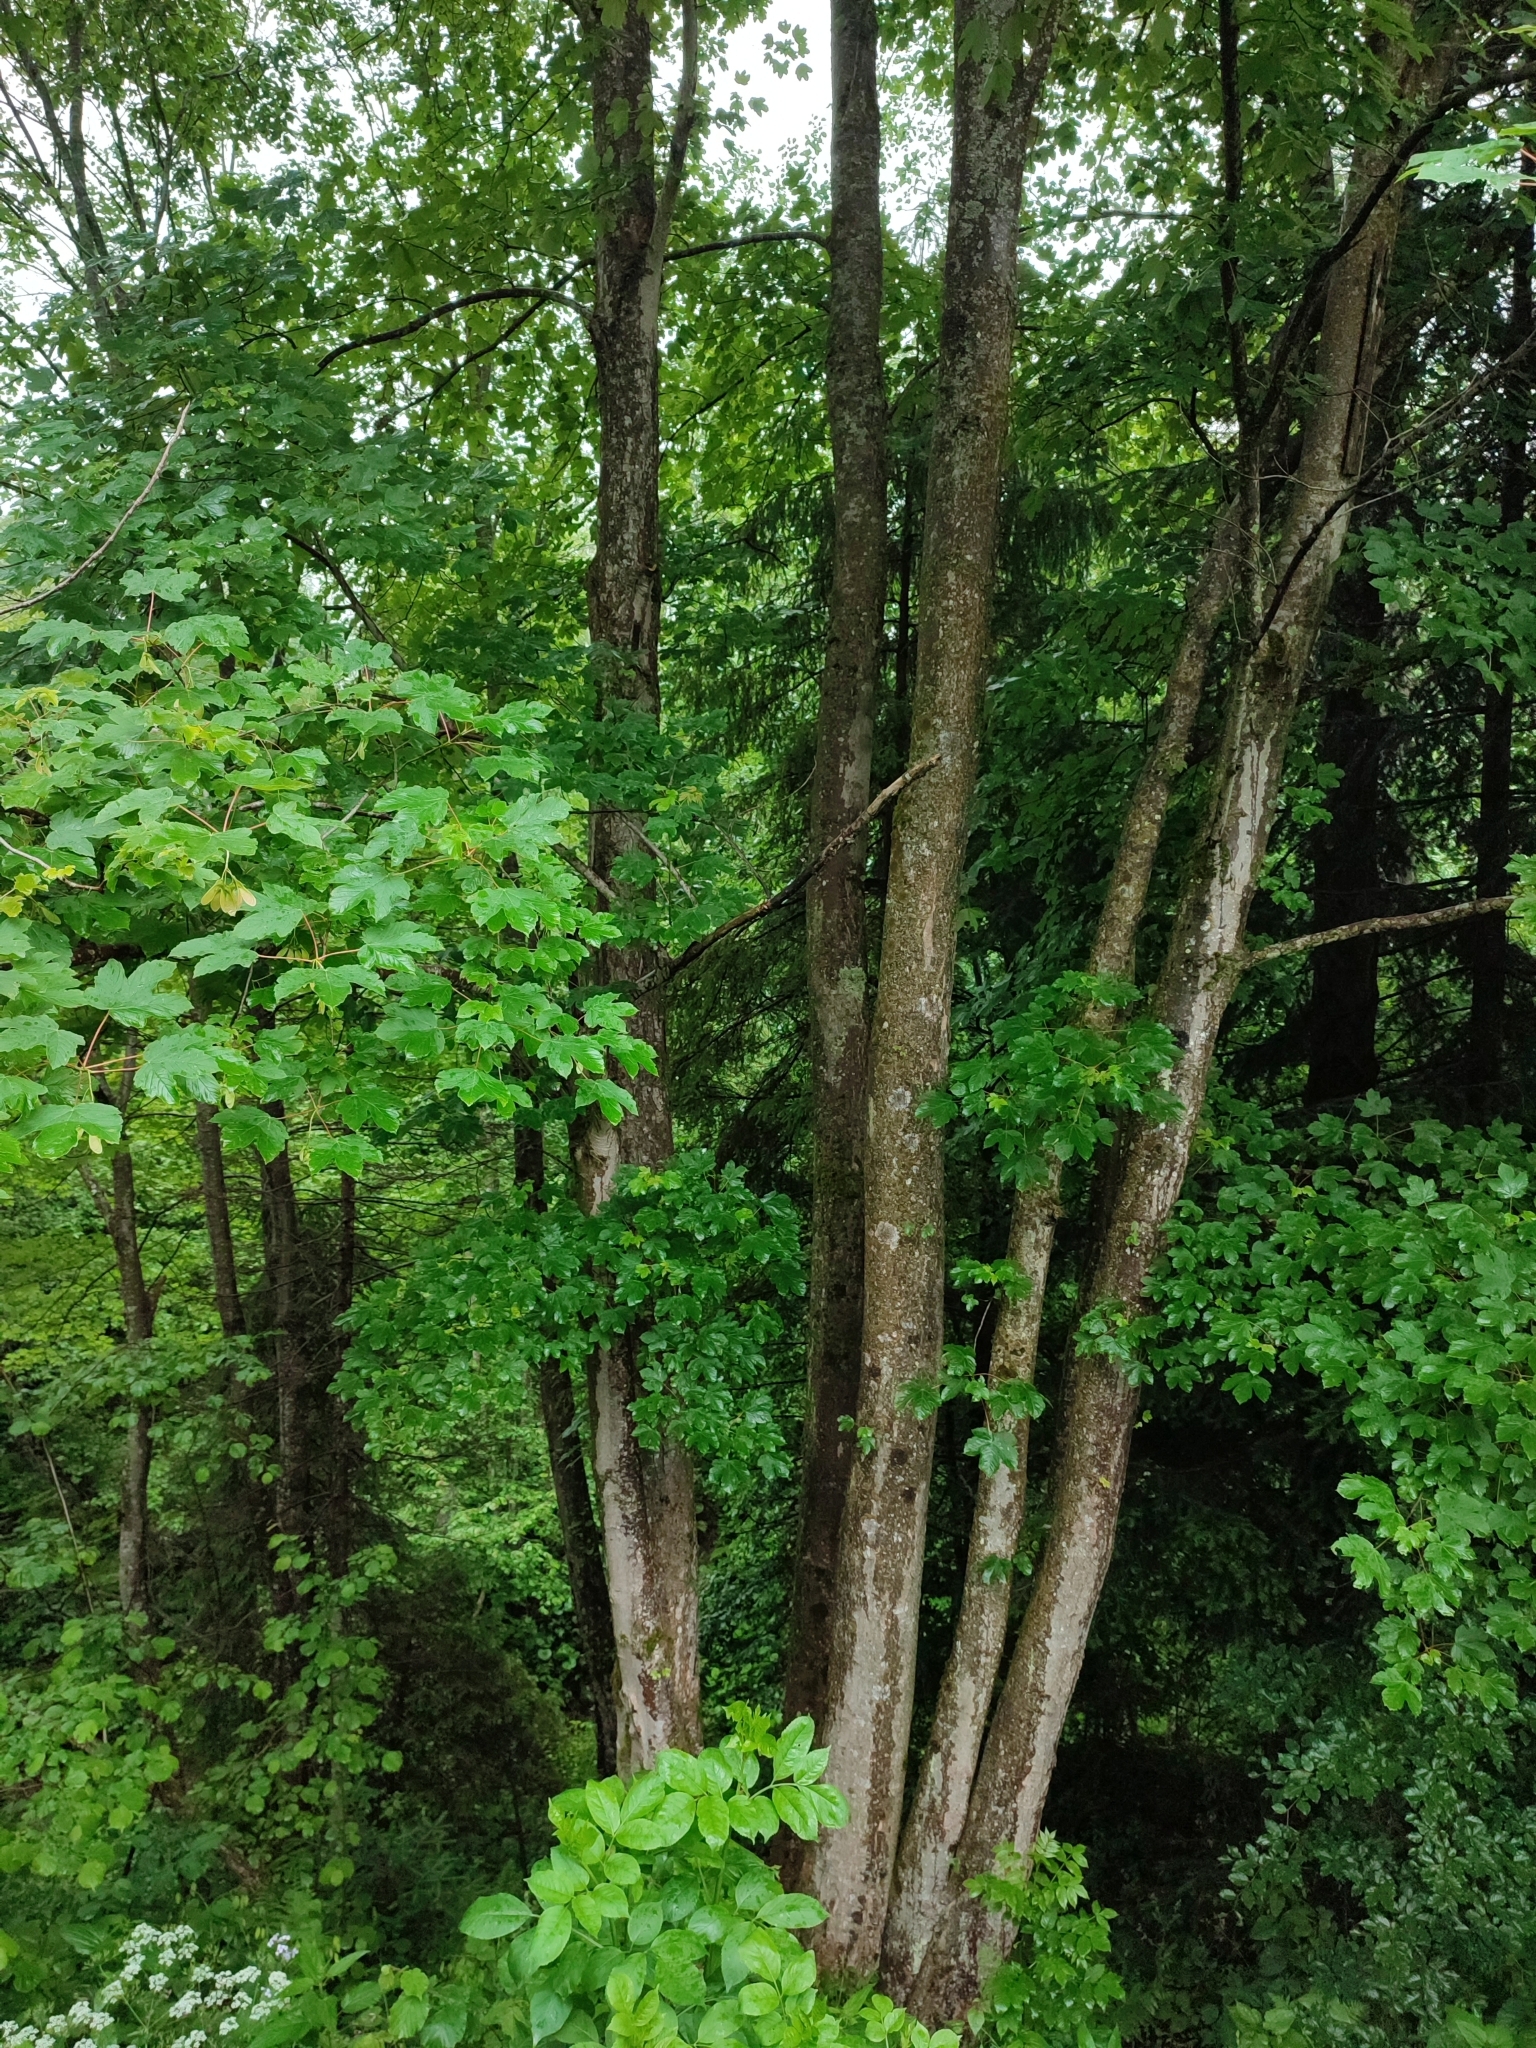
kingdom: Plantae
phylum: Tracheophyta
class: Magnoliopsida
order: Sapindales
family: Sapindaceae
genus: Acer
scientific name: Acer pseudoplatanus
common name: Sycamore
